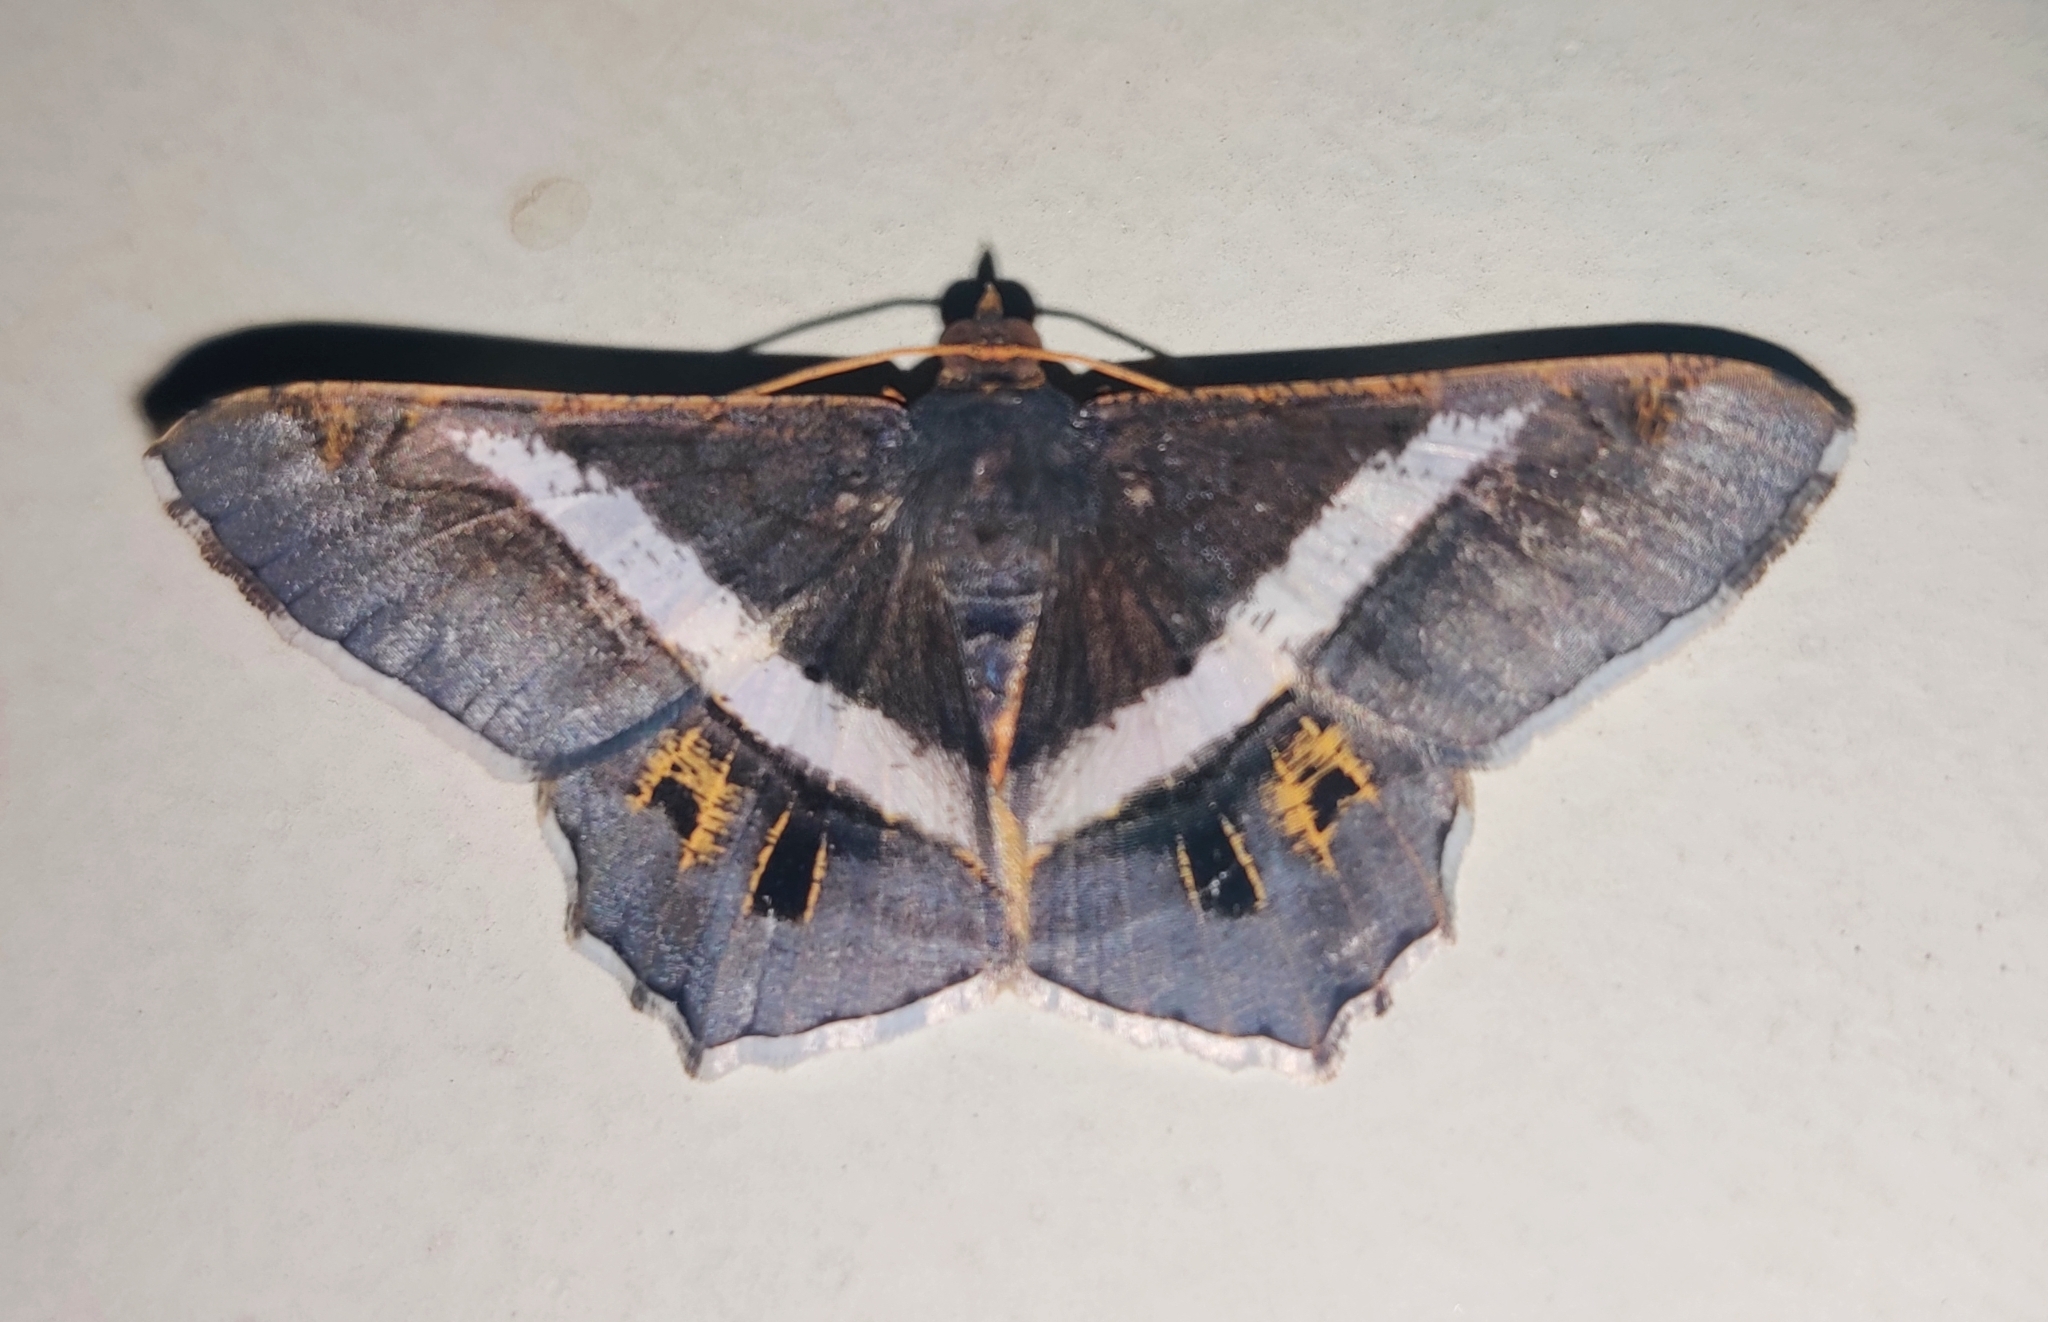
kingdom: Animalia
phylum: Arthropoda
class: Insecta
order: Lepidoptera
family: Geometridae
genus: Chiasmia
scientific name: Chiasmia eleonora
